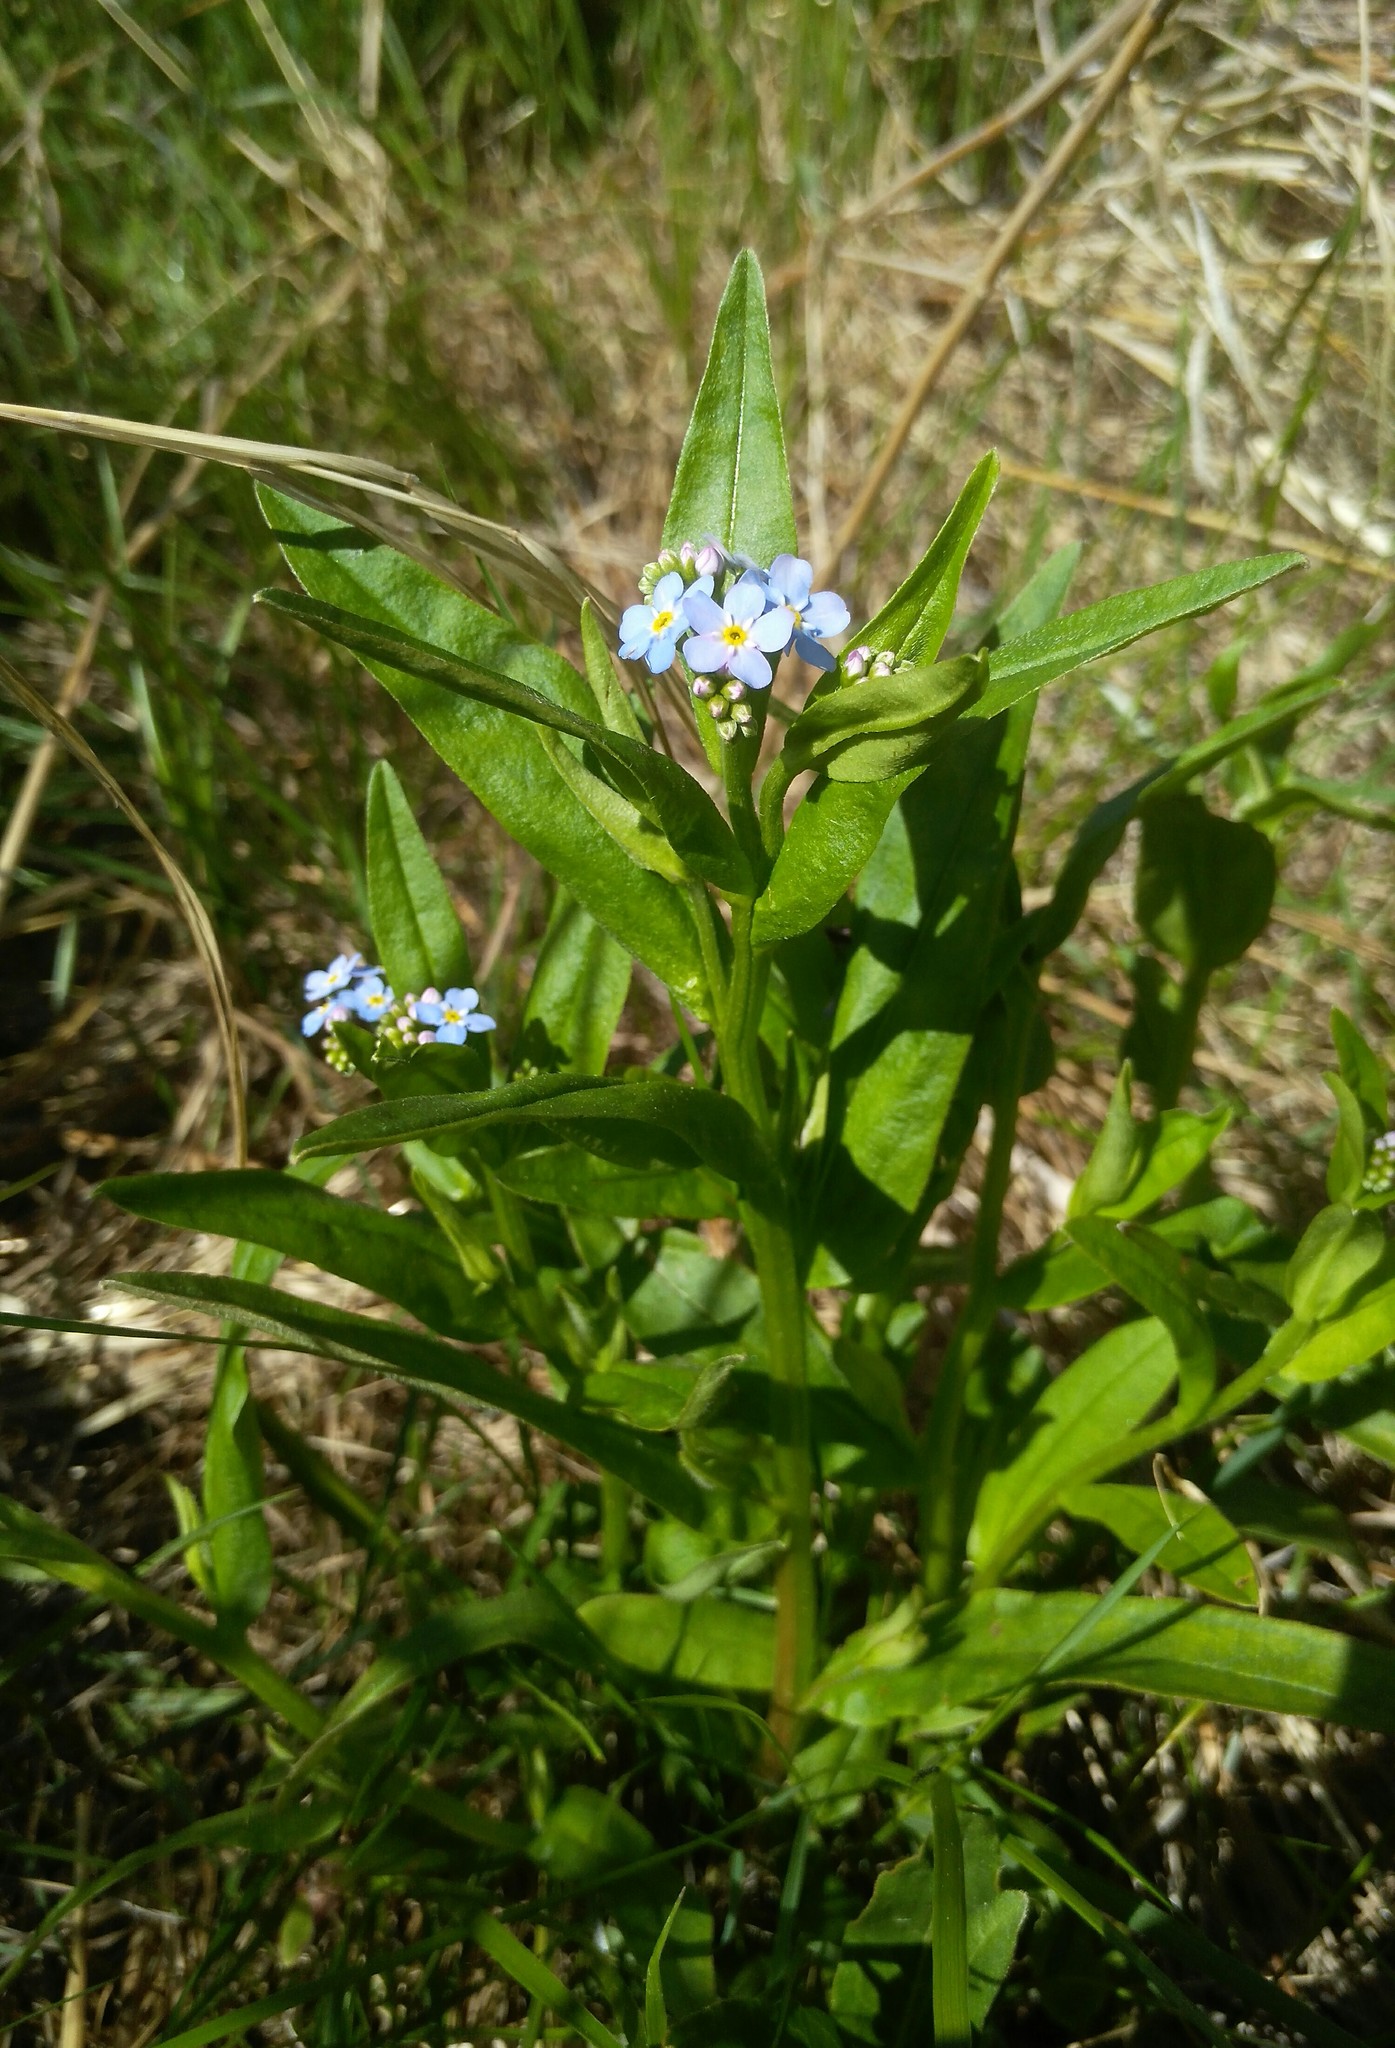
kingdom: Plantae
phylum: Tracheophyta
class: Magnoliopsida
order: Boraginales
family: Boraginaceae
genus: Myosotis
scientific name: Myosotis scorpioides
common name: Water forget-me-not
